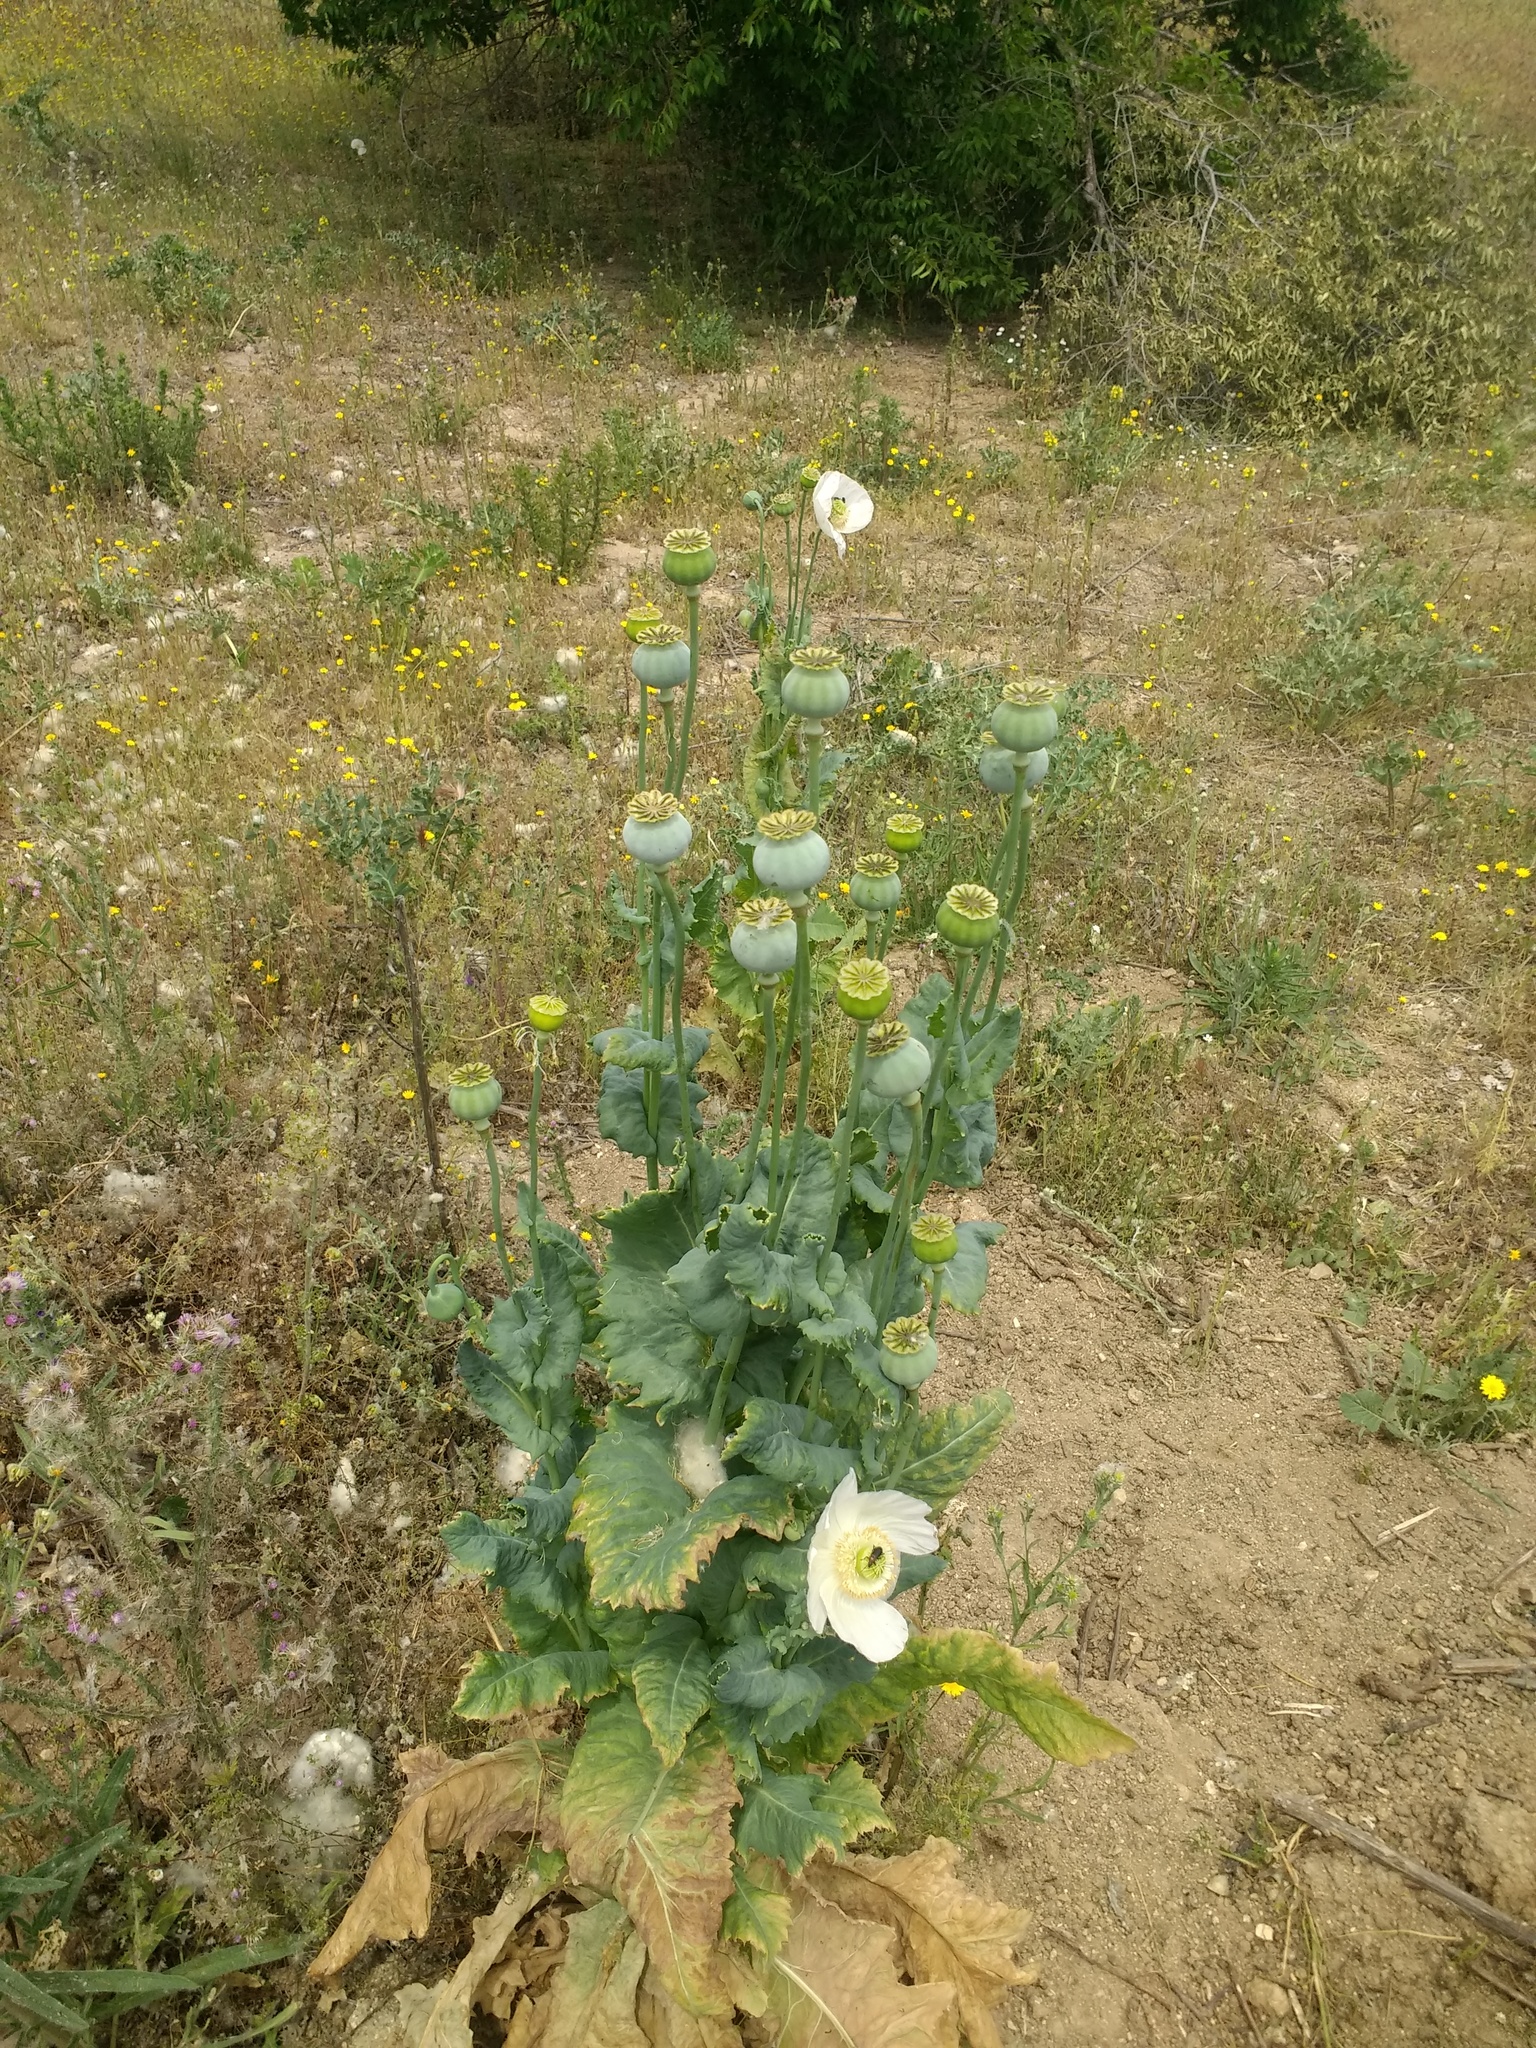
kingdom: Plantae
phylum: Tracheophyta
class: Magnoliopsida
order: Ranunculales
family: Papaveraceae
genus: Papaver
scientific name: Papaver somniferum
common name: Opium poppy
